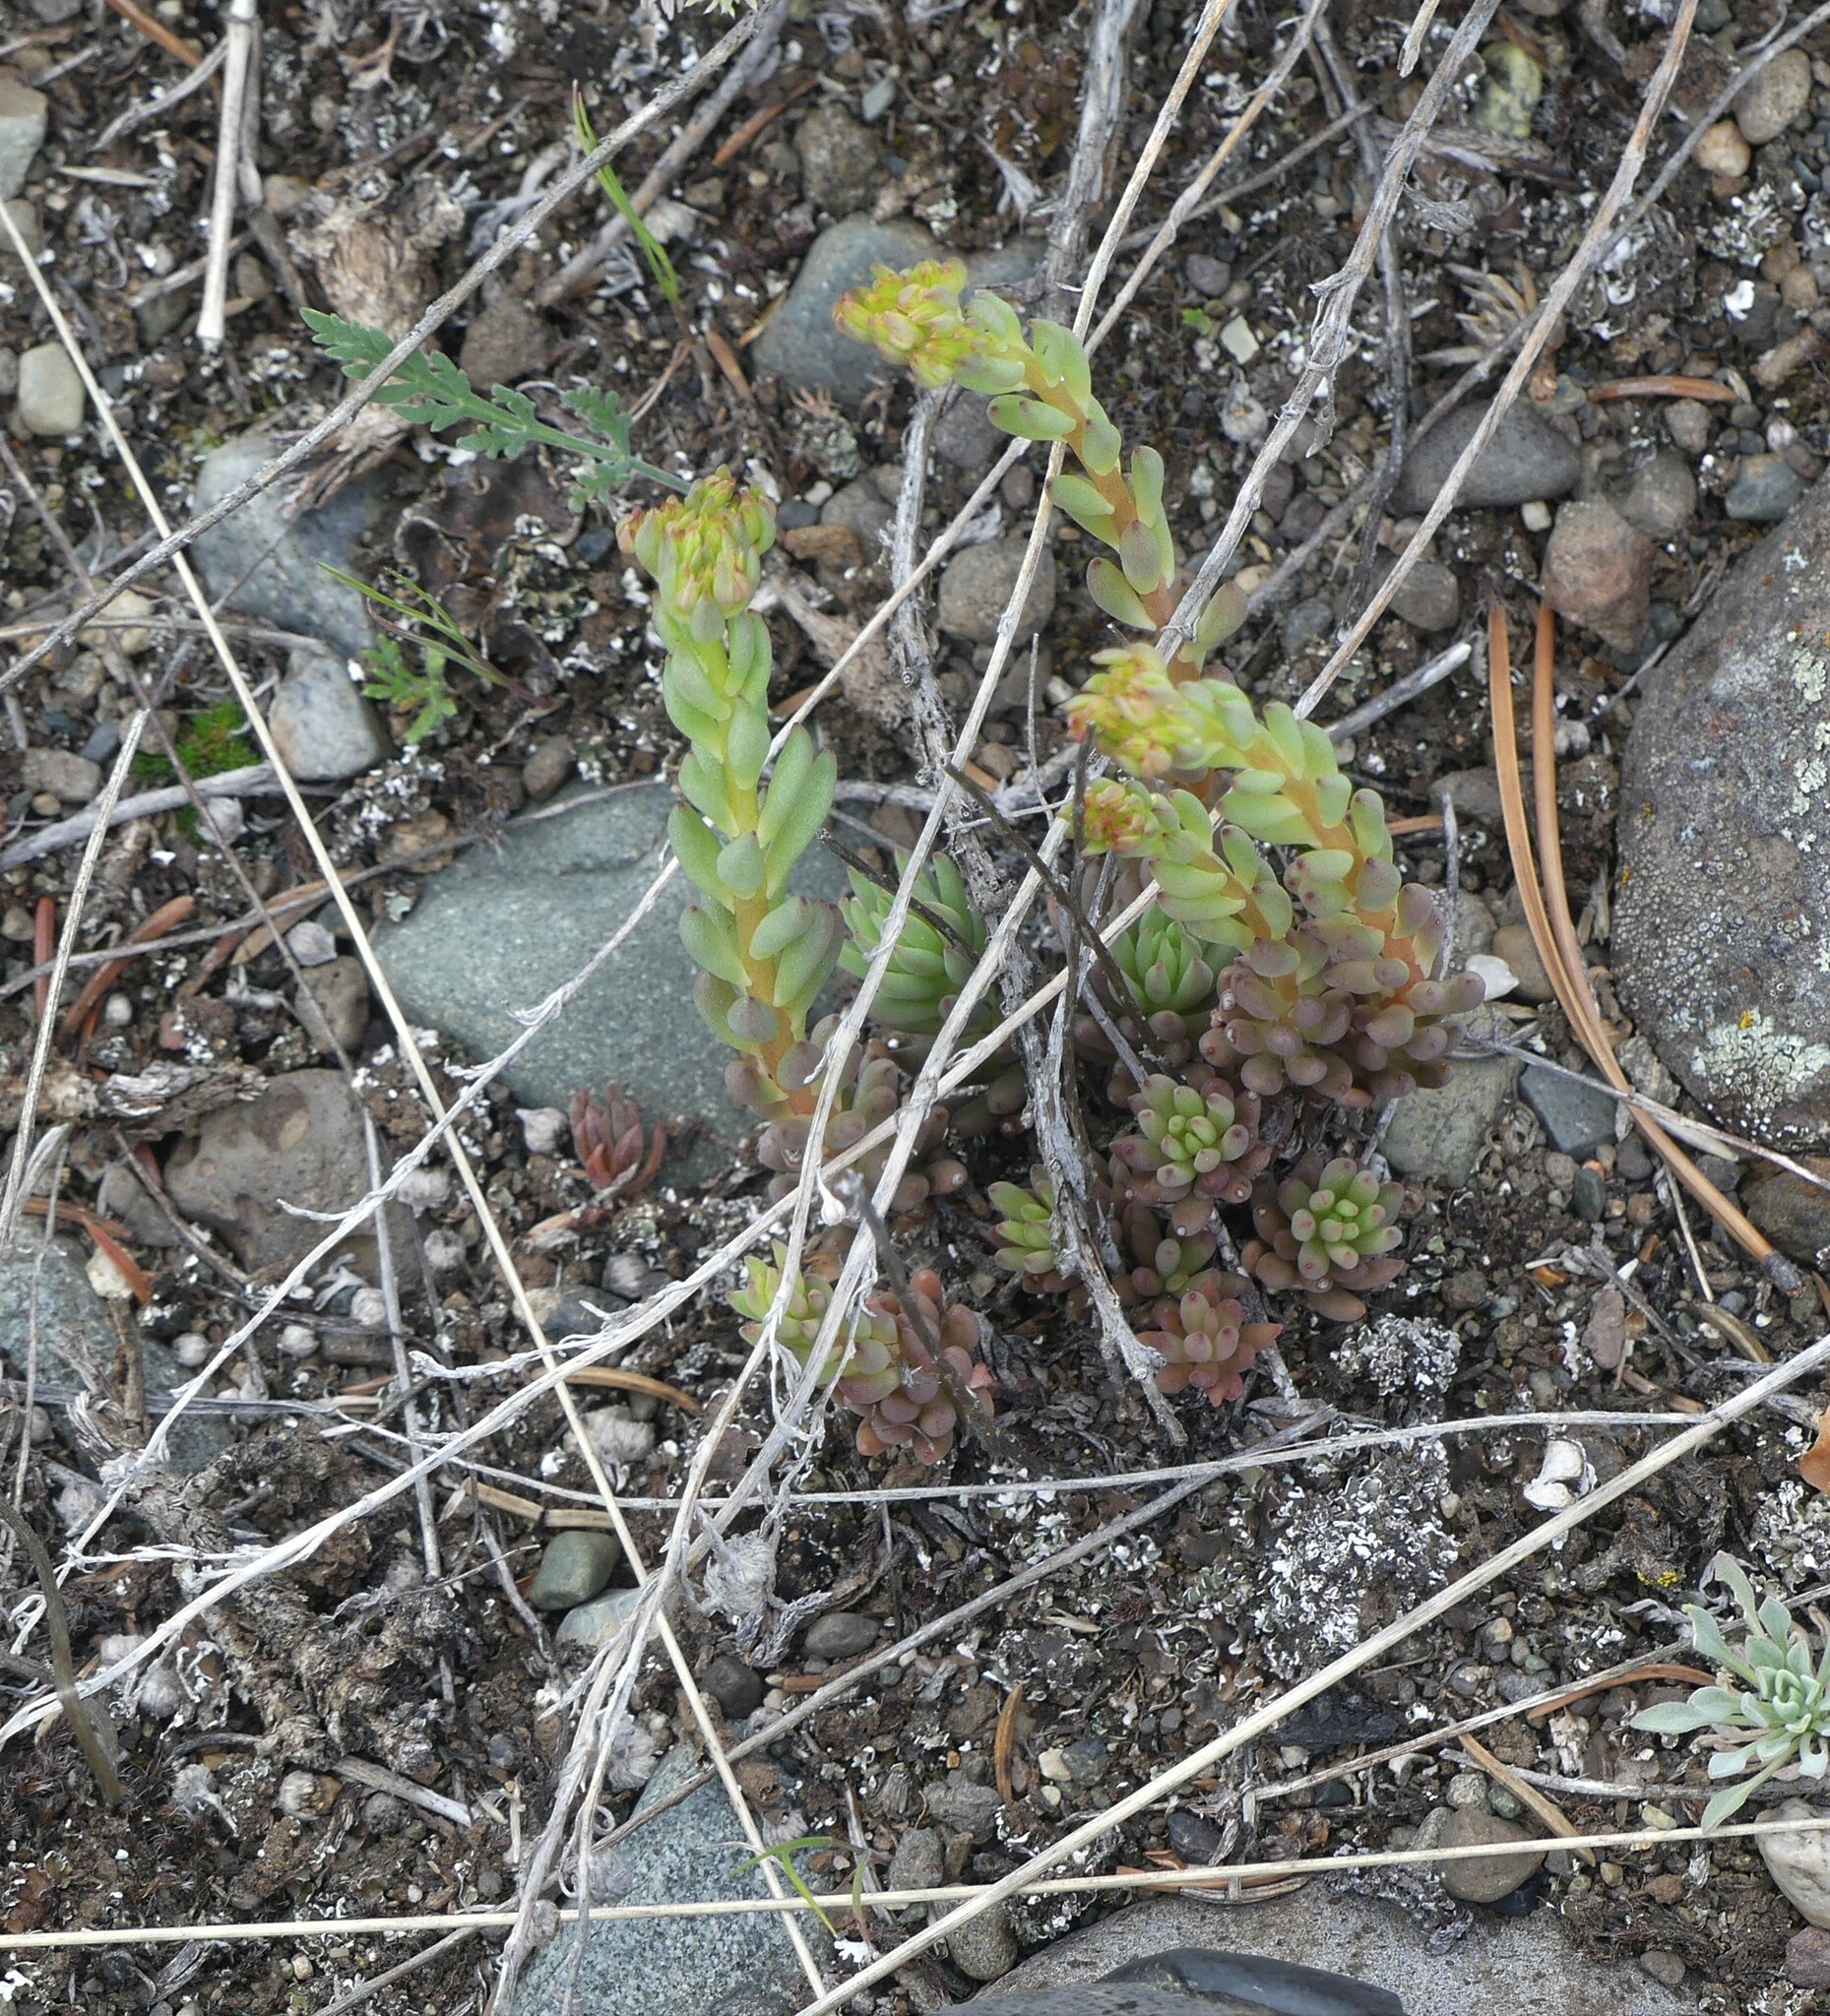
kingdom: Plantae
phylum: Tracheophyta
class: Magnoliopsida
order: Saxifragales
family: Crassulaceae
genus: Sedum
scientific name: Sedum lanceolatum
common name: Common stonecrop
